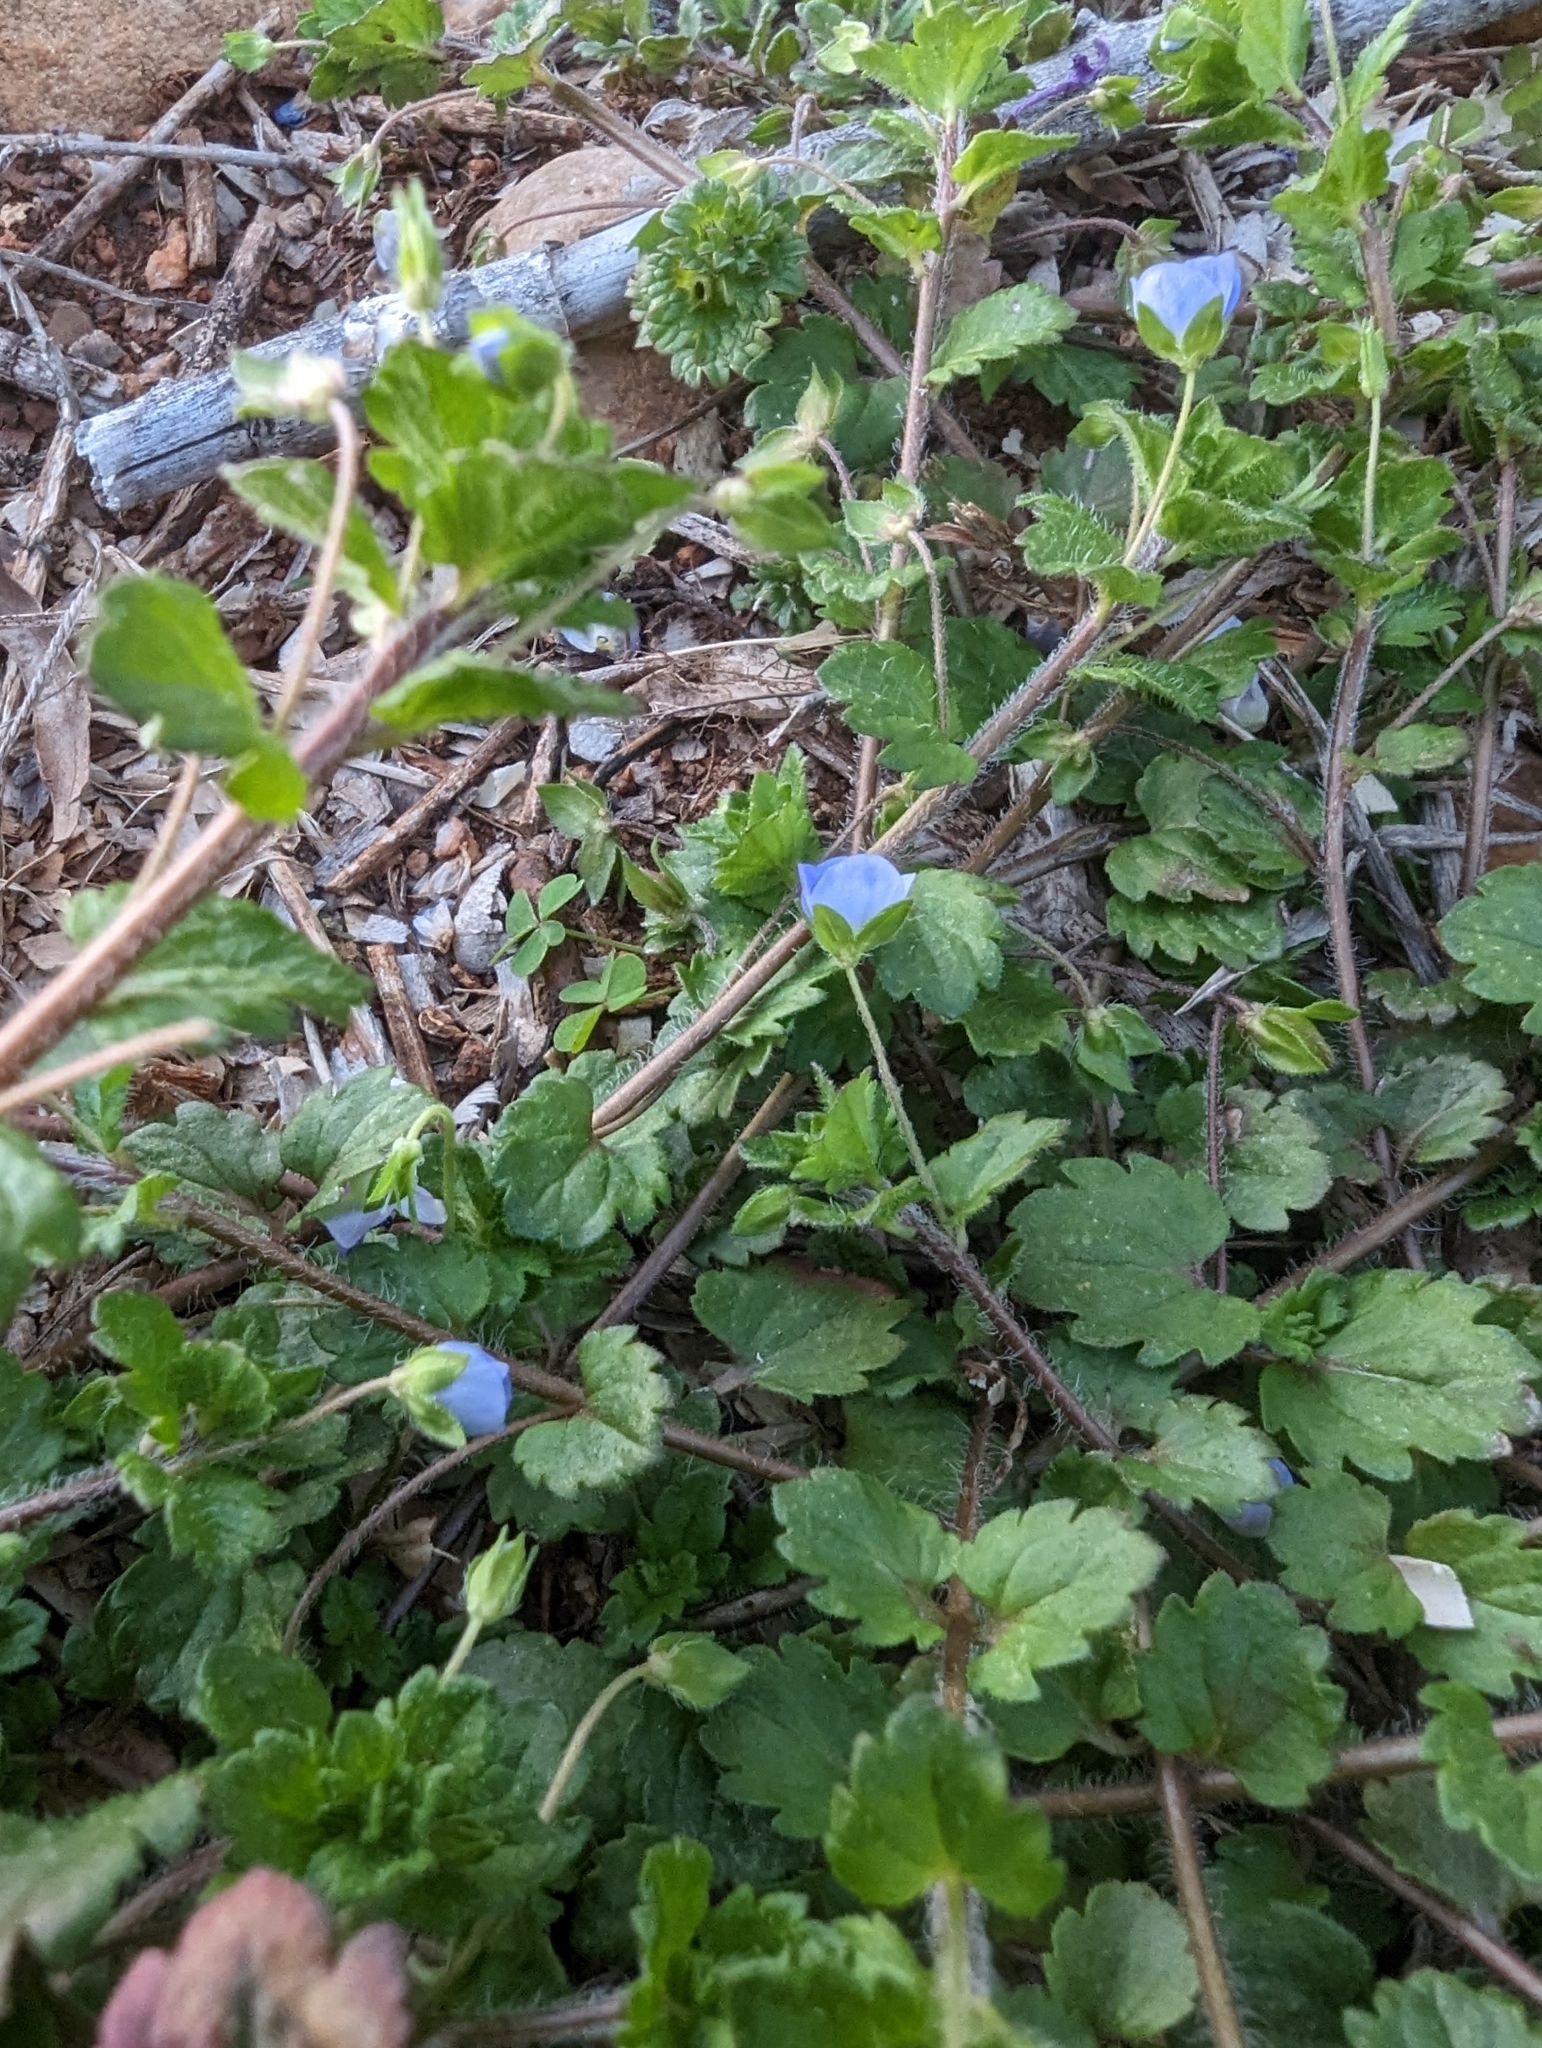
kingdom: Plantae
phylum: Tracheophyta
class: Magnoliopsida
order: Lamiales
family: Plantaginaceae
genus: Veronica
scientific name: Veronica persica
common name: Common field-speedwell
